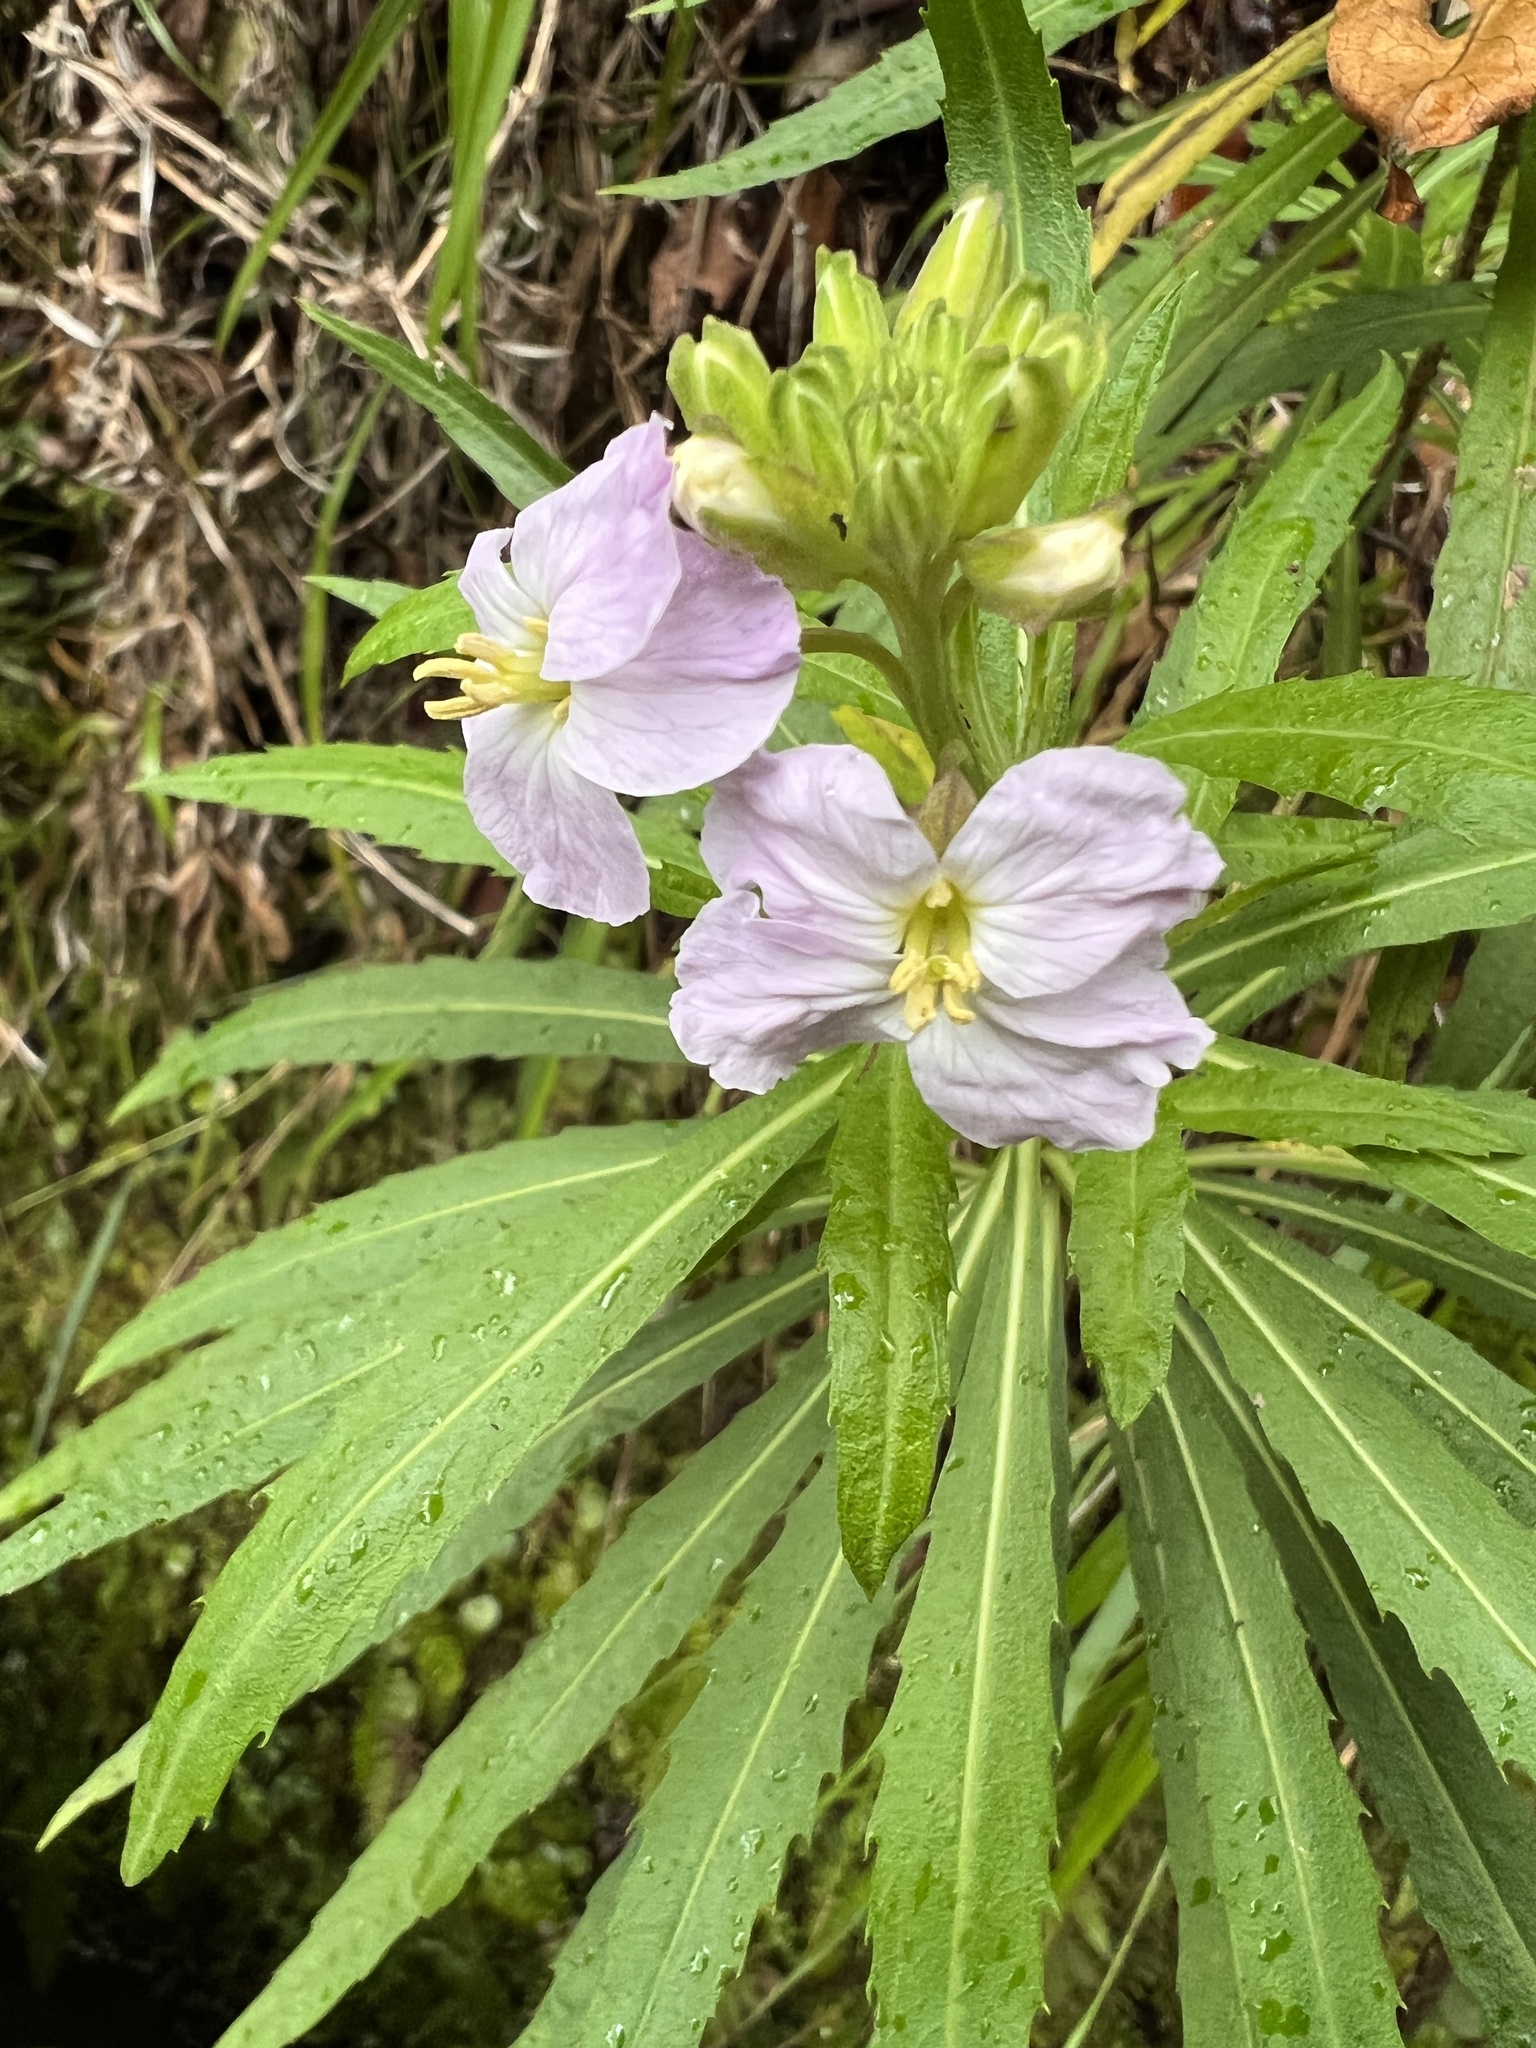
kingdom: Plantae
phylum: Tracheophyta
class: Magnoliopsida
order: Brassicales
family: Brassicaceae
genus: Erysimum
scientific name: Erysimum bicolor
